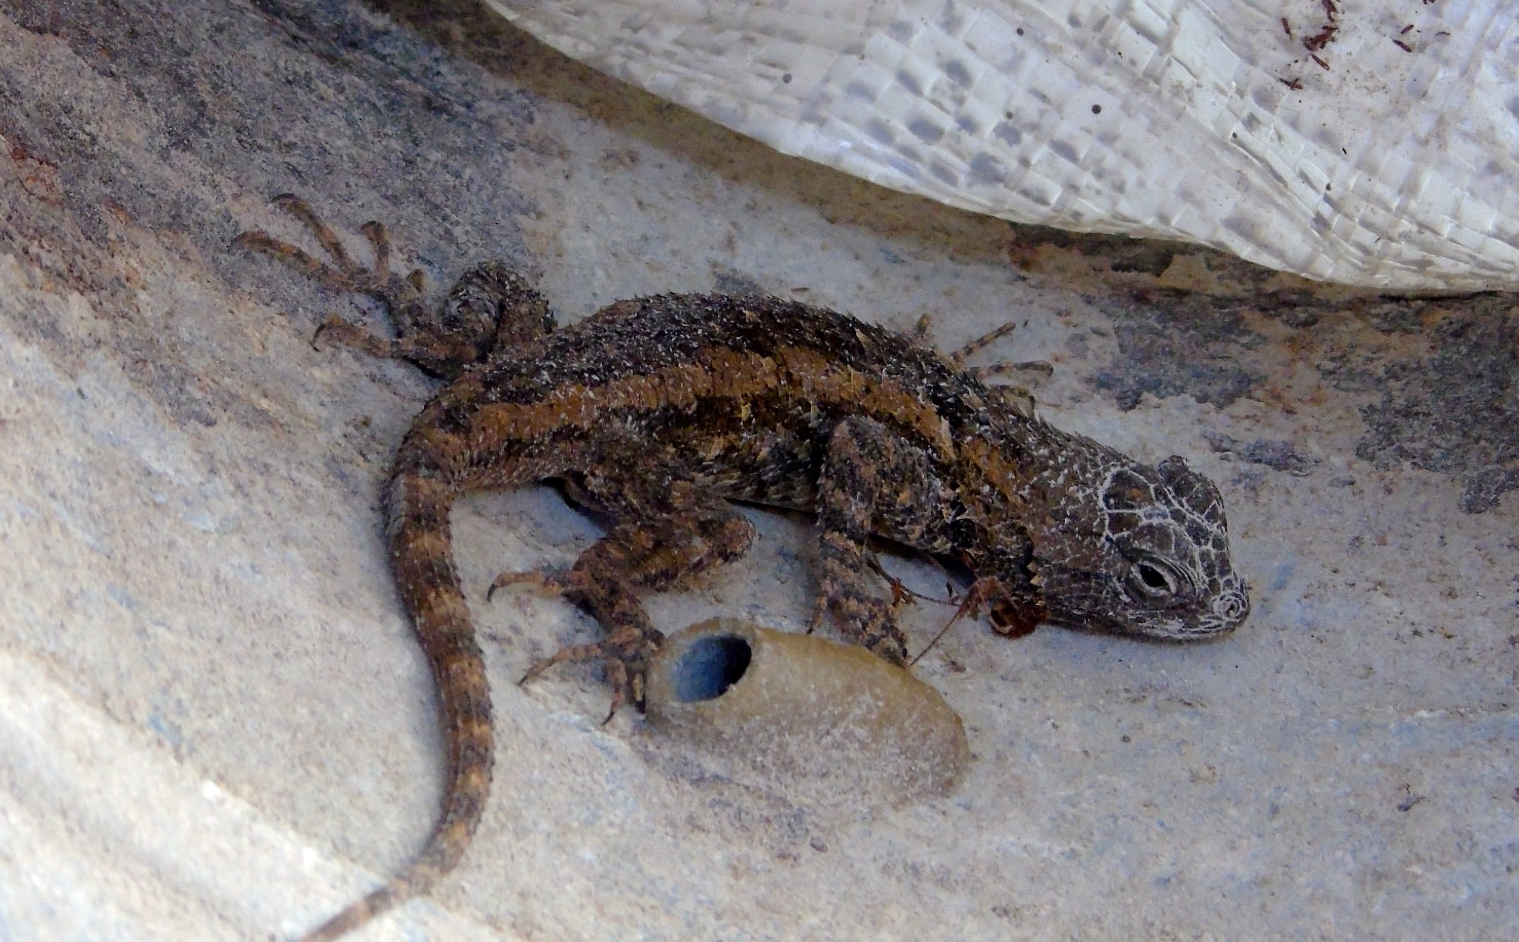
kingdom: Animalia
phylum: Chordata
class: Squamata
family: Phrynosomatidae
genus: Sceloporus
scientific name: Sceloporus
